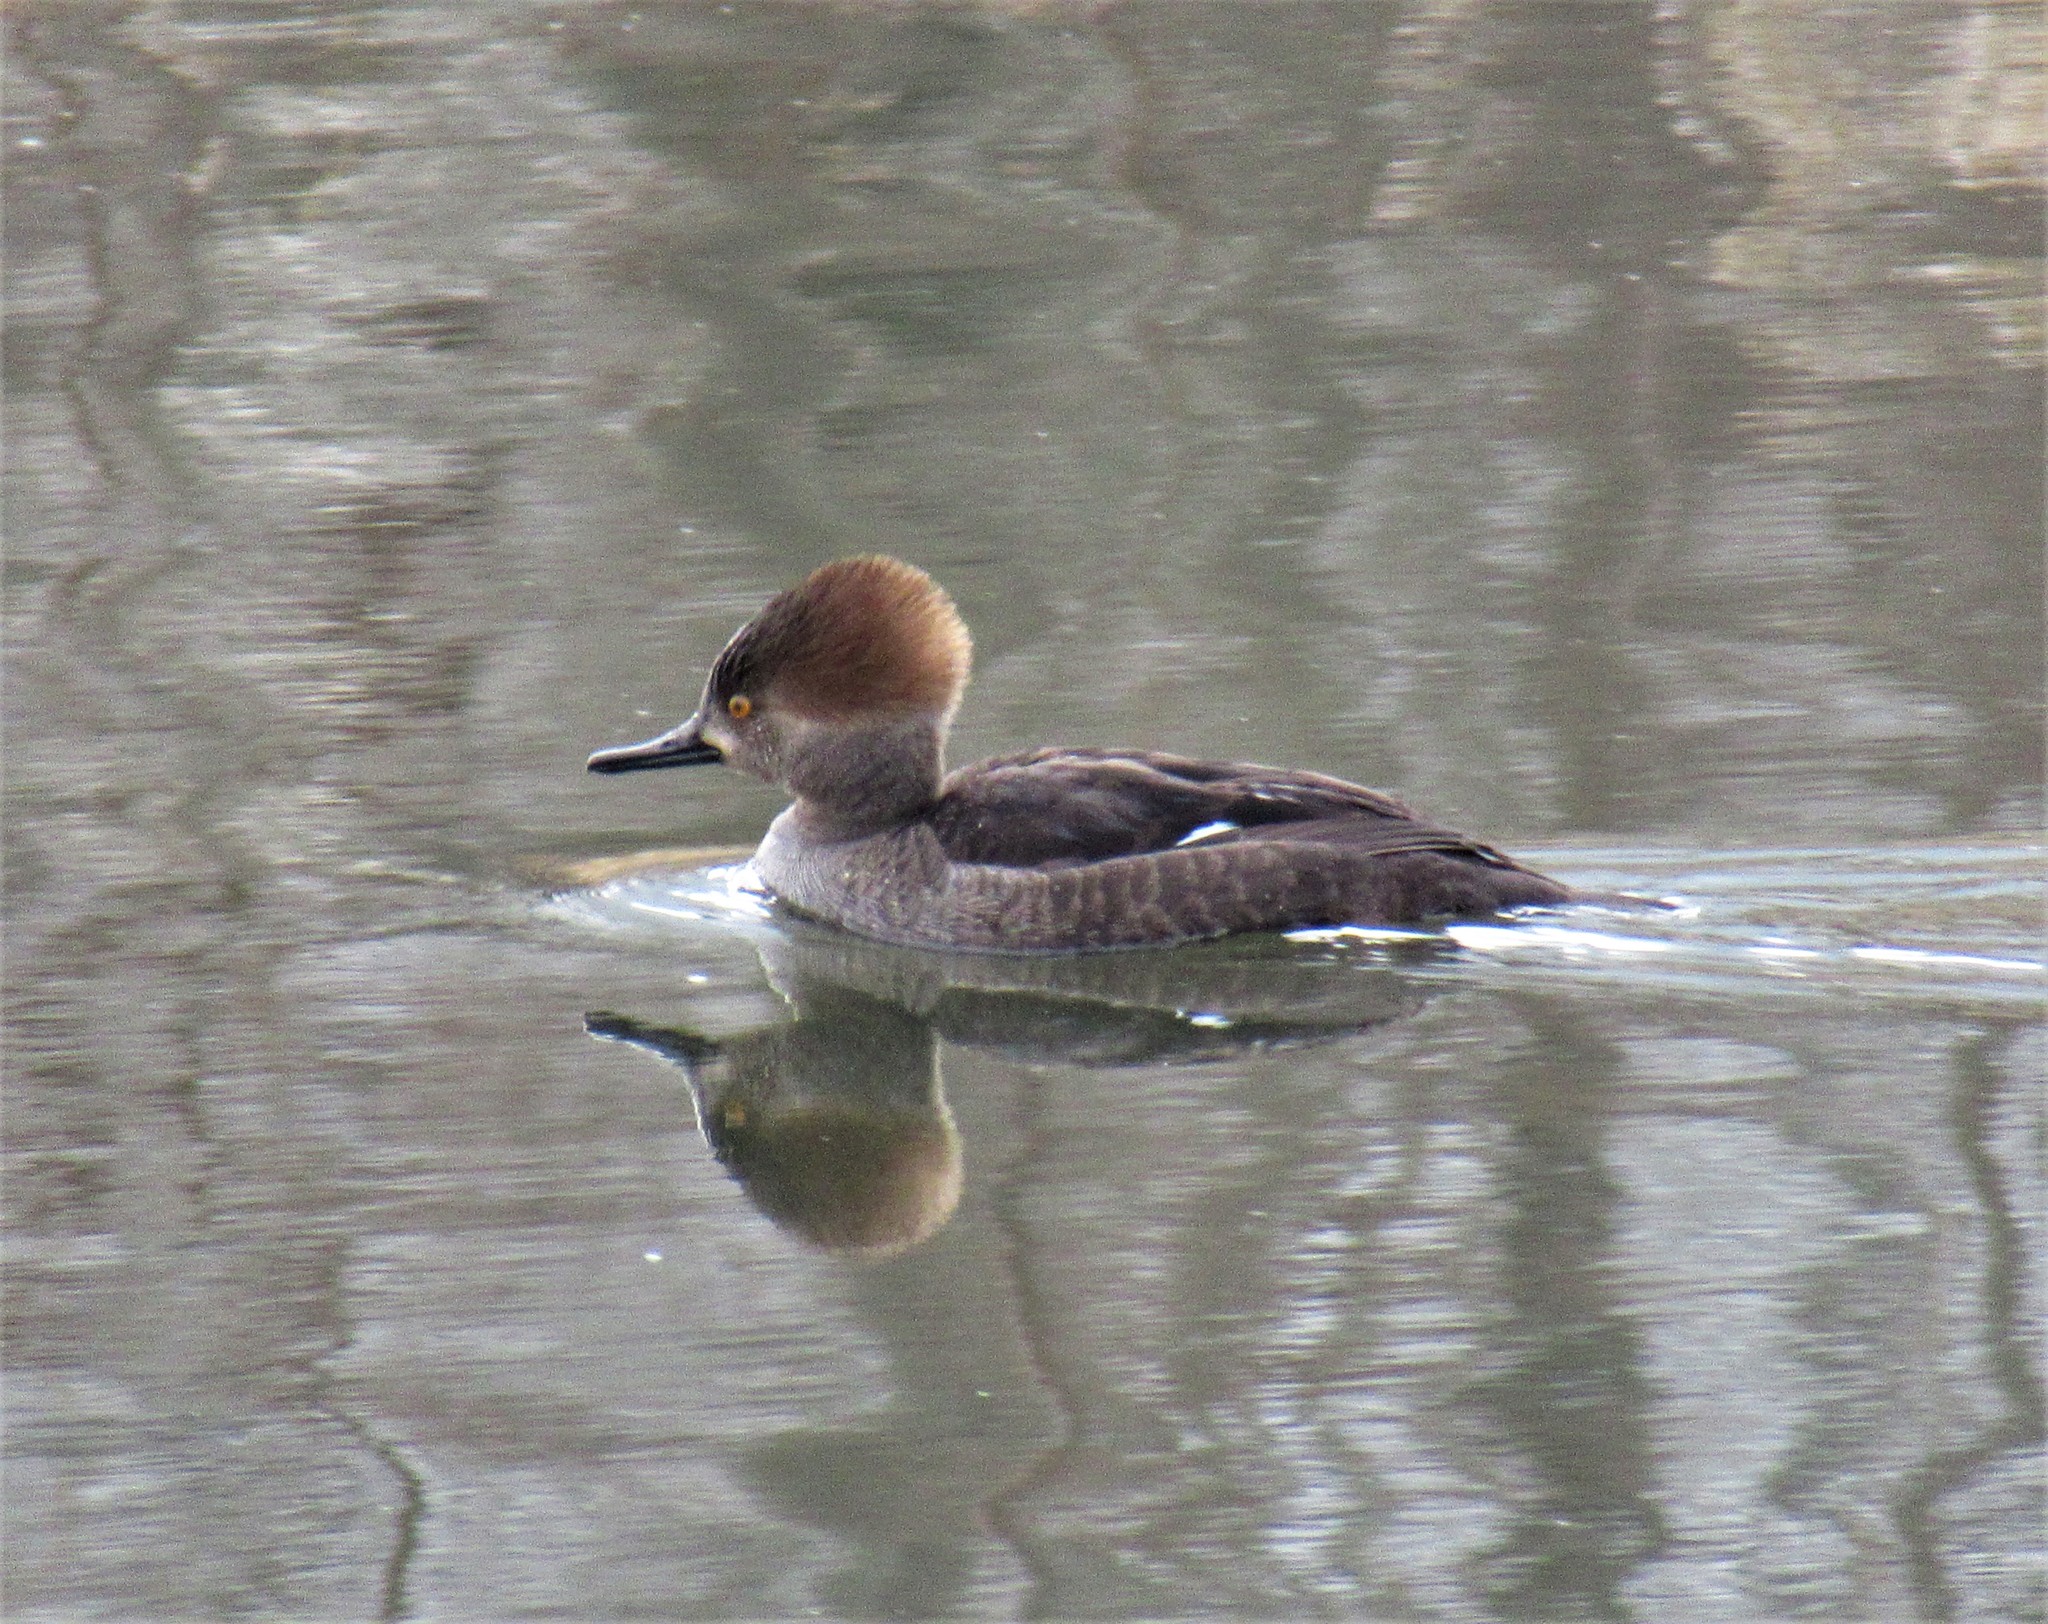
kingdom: Animalia
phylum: Chordata
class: Aves
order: Anseriformes
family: Anatidae
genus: Lophodytes
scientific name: Lophodytes cucullatus
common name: Hooded merganser
